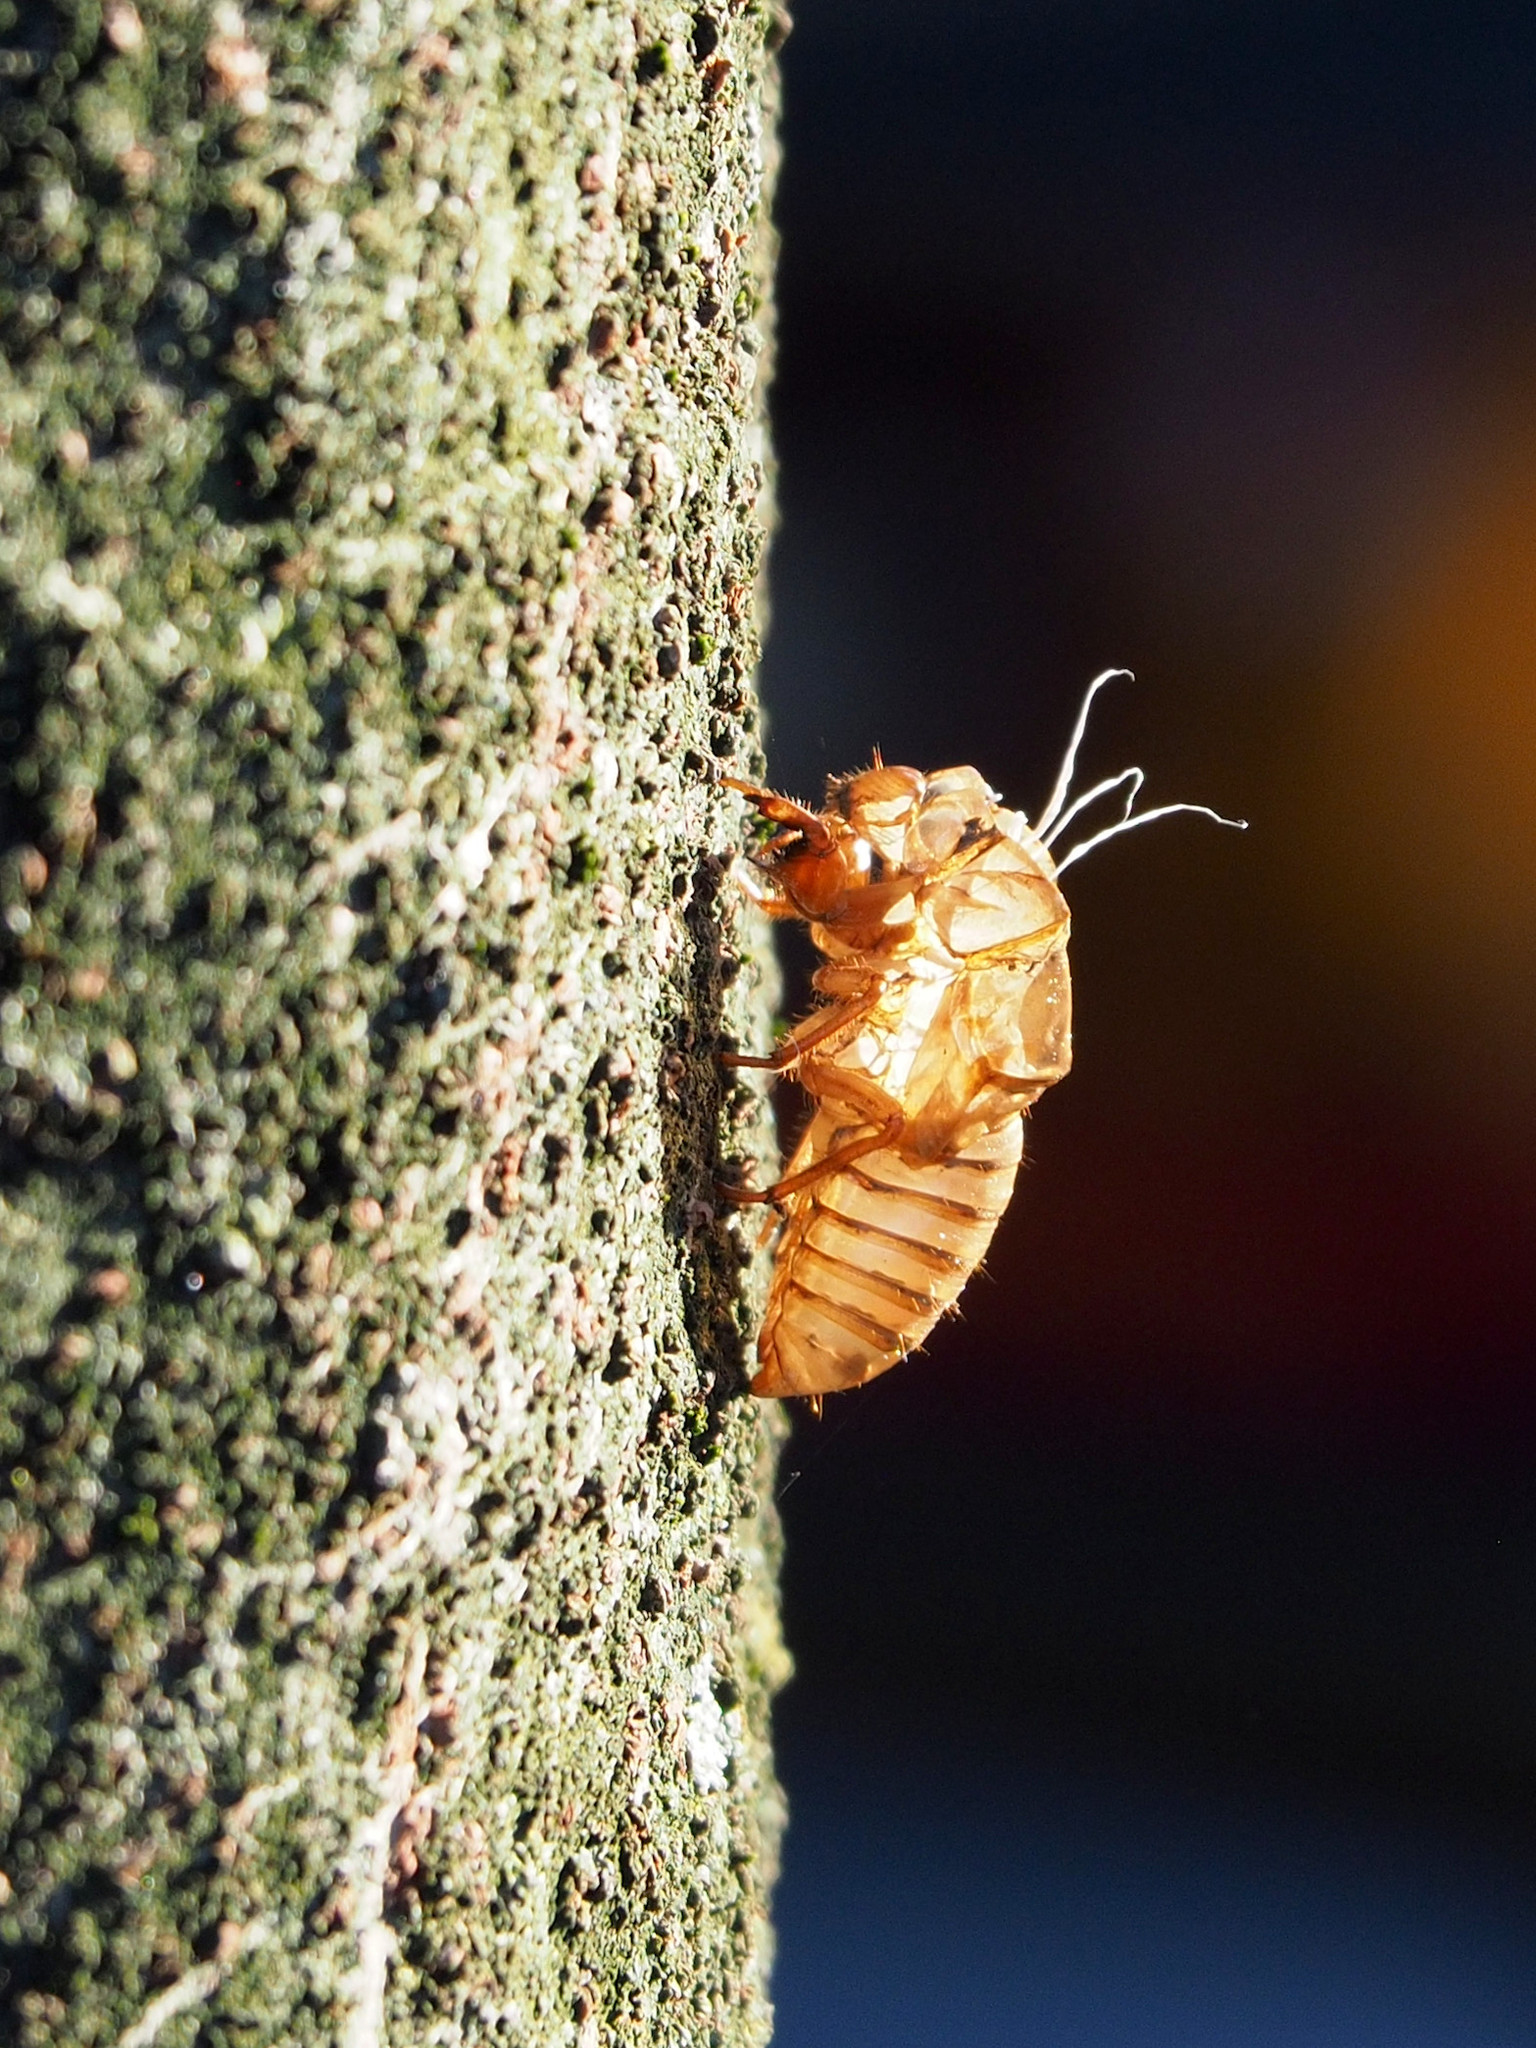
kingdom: Animalia
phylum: Arthropoda
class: Insecta
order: Hemiptera
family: Cicadidae
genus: Magicicada
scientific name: Magicicada
